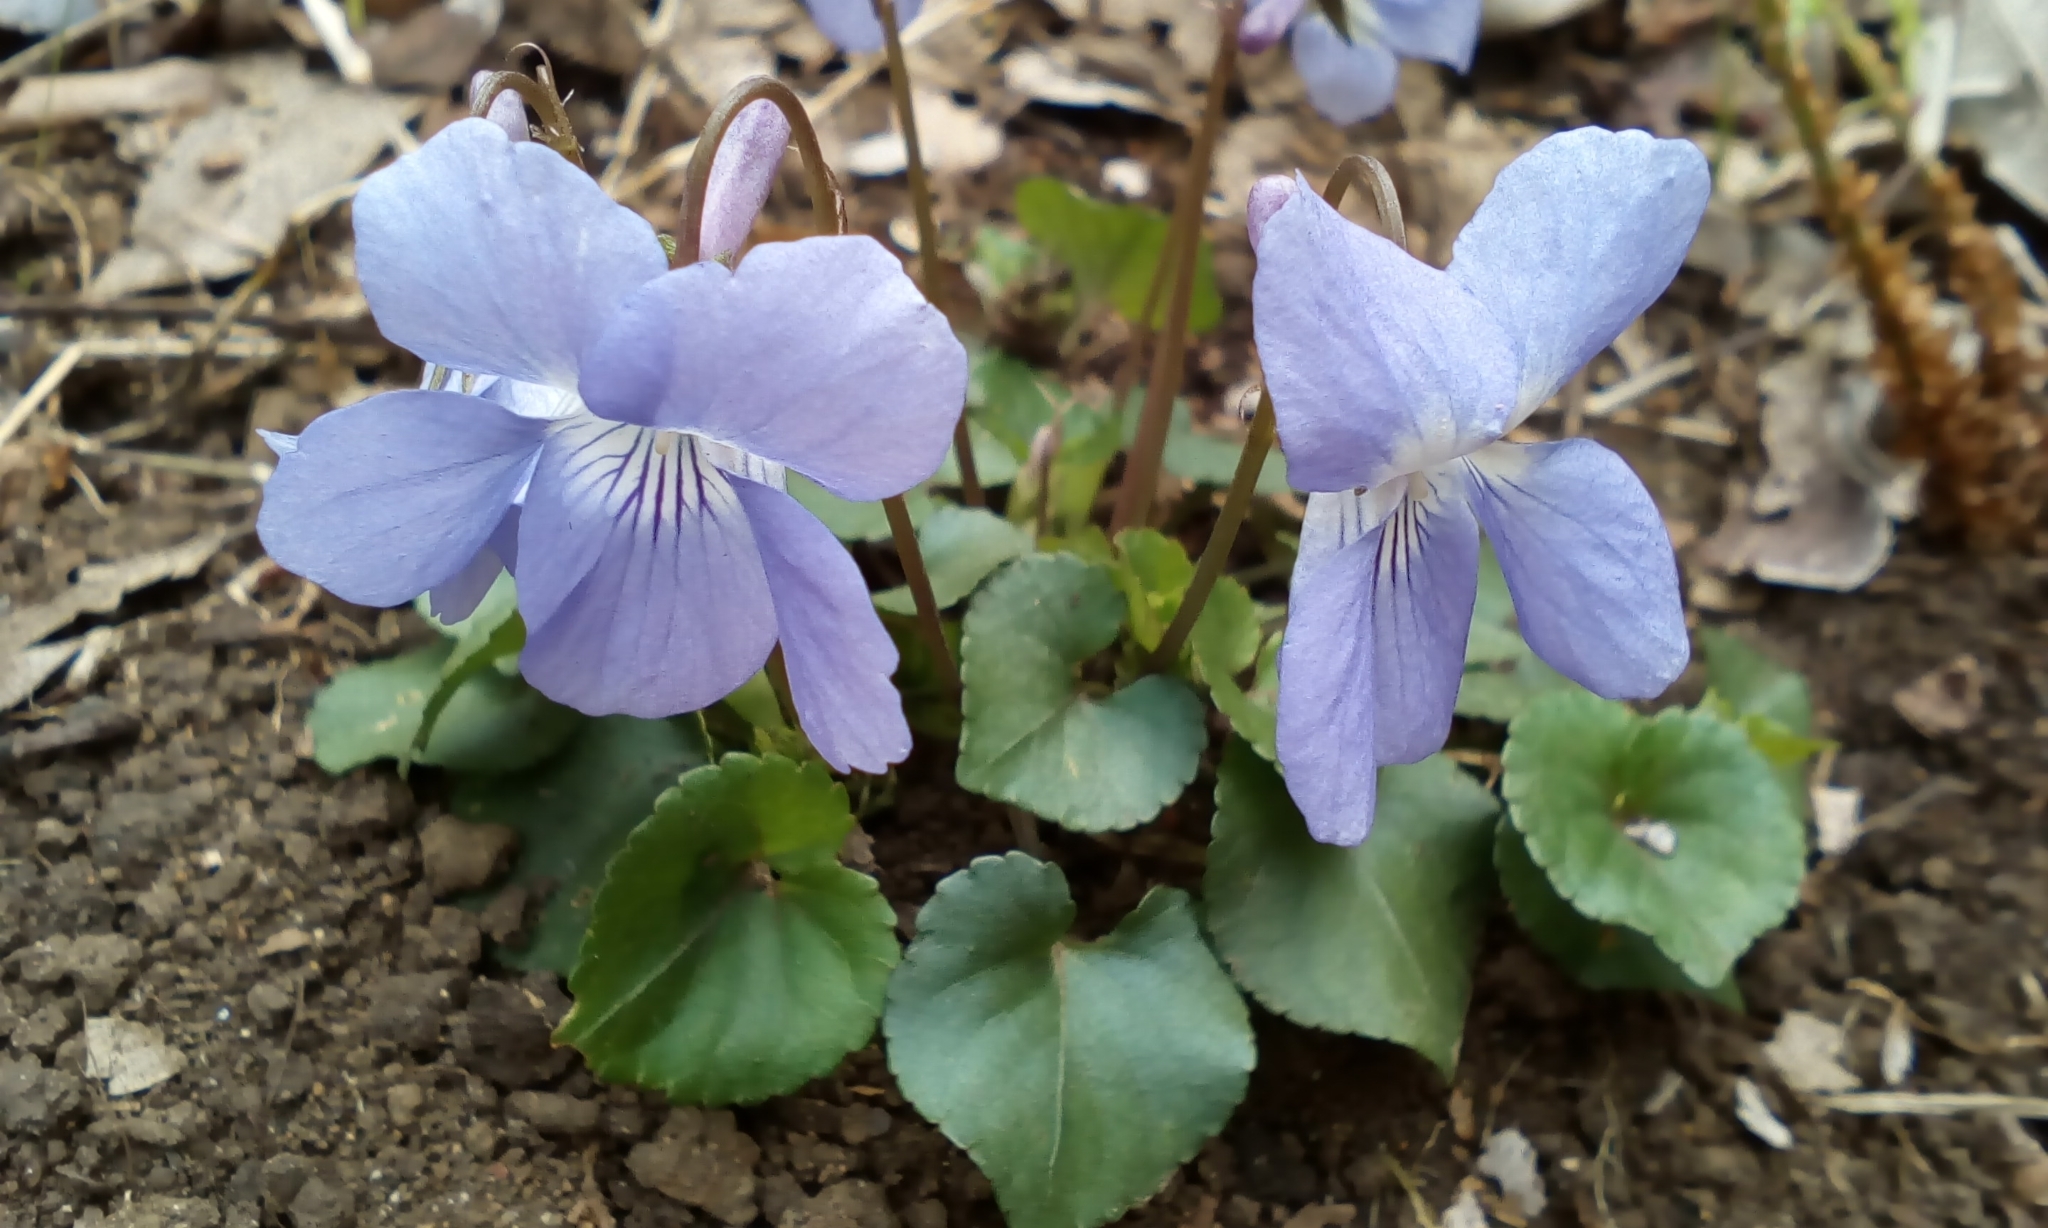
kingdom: Plantae
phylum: Tracheophyta
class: Magnoliopsida
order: Malpighiales
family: Violaceae
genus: Viola
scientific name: Viola grypoceras
